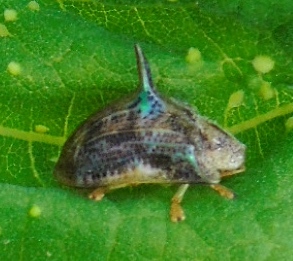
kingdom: Animalia
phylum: Arthropoda
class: Insecta
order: Coleoptera
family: Chrysomelidae
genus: Dorynota
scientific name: Dorynota aurita
